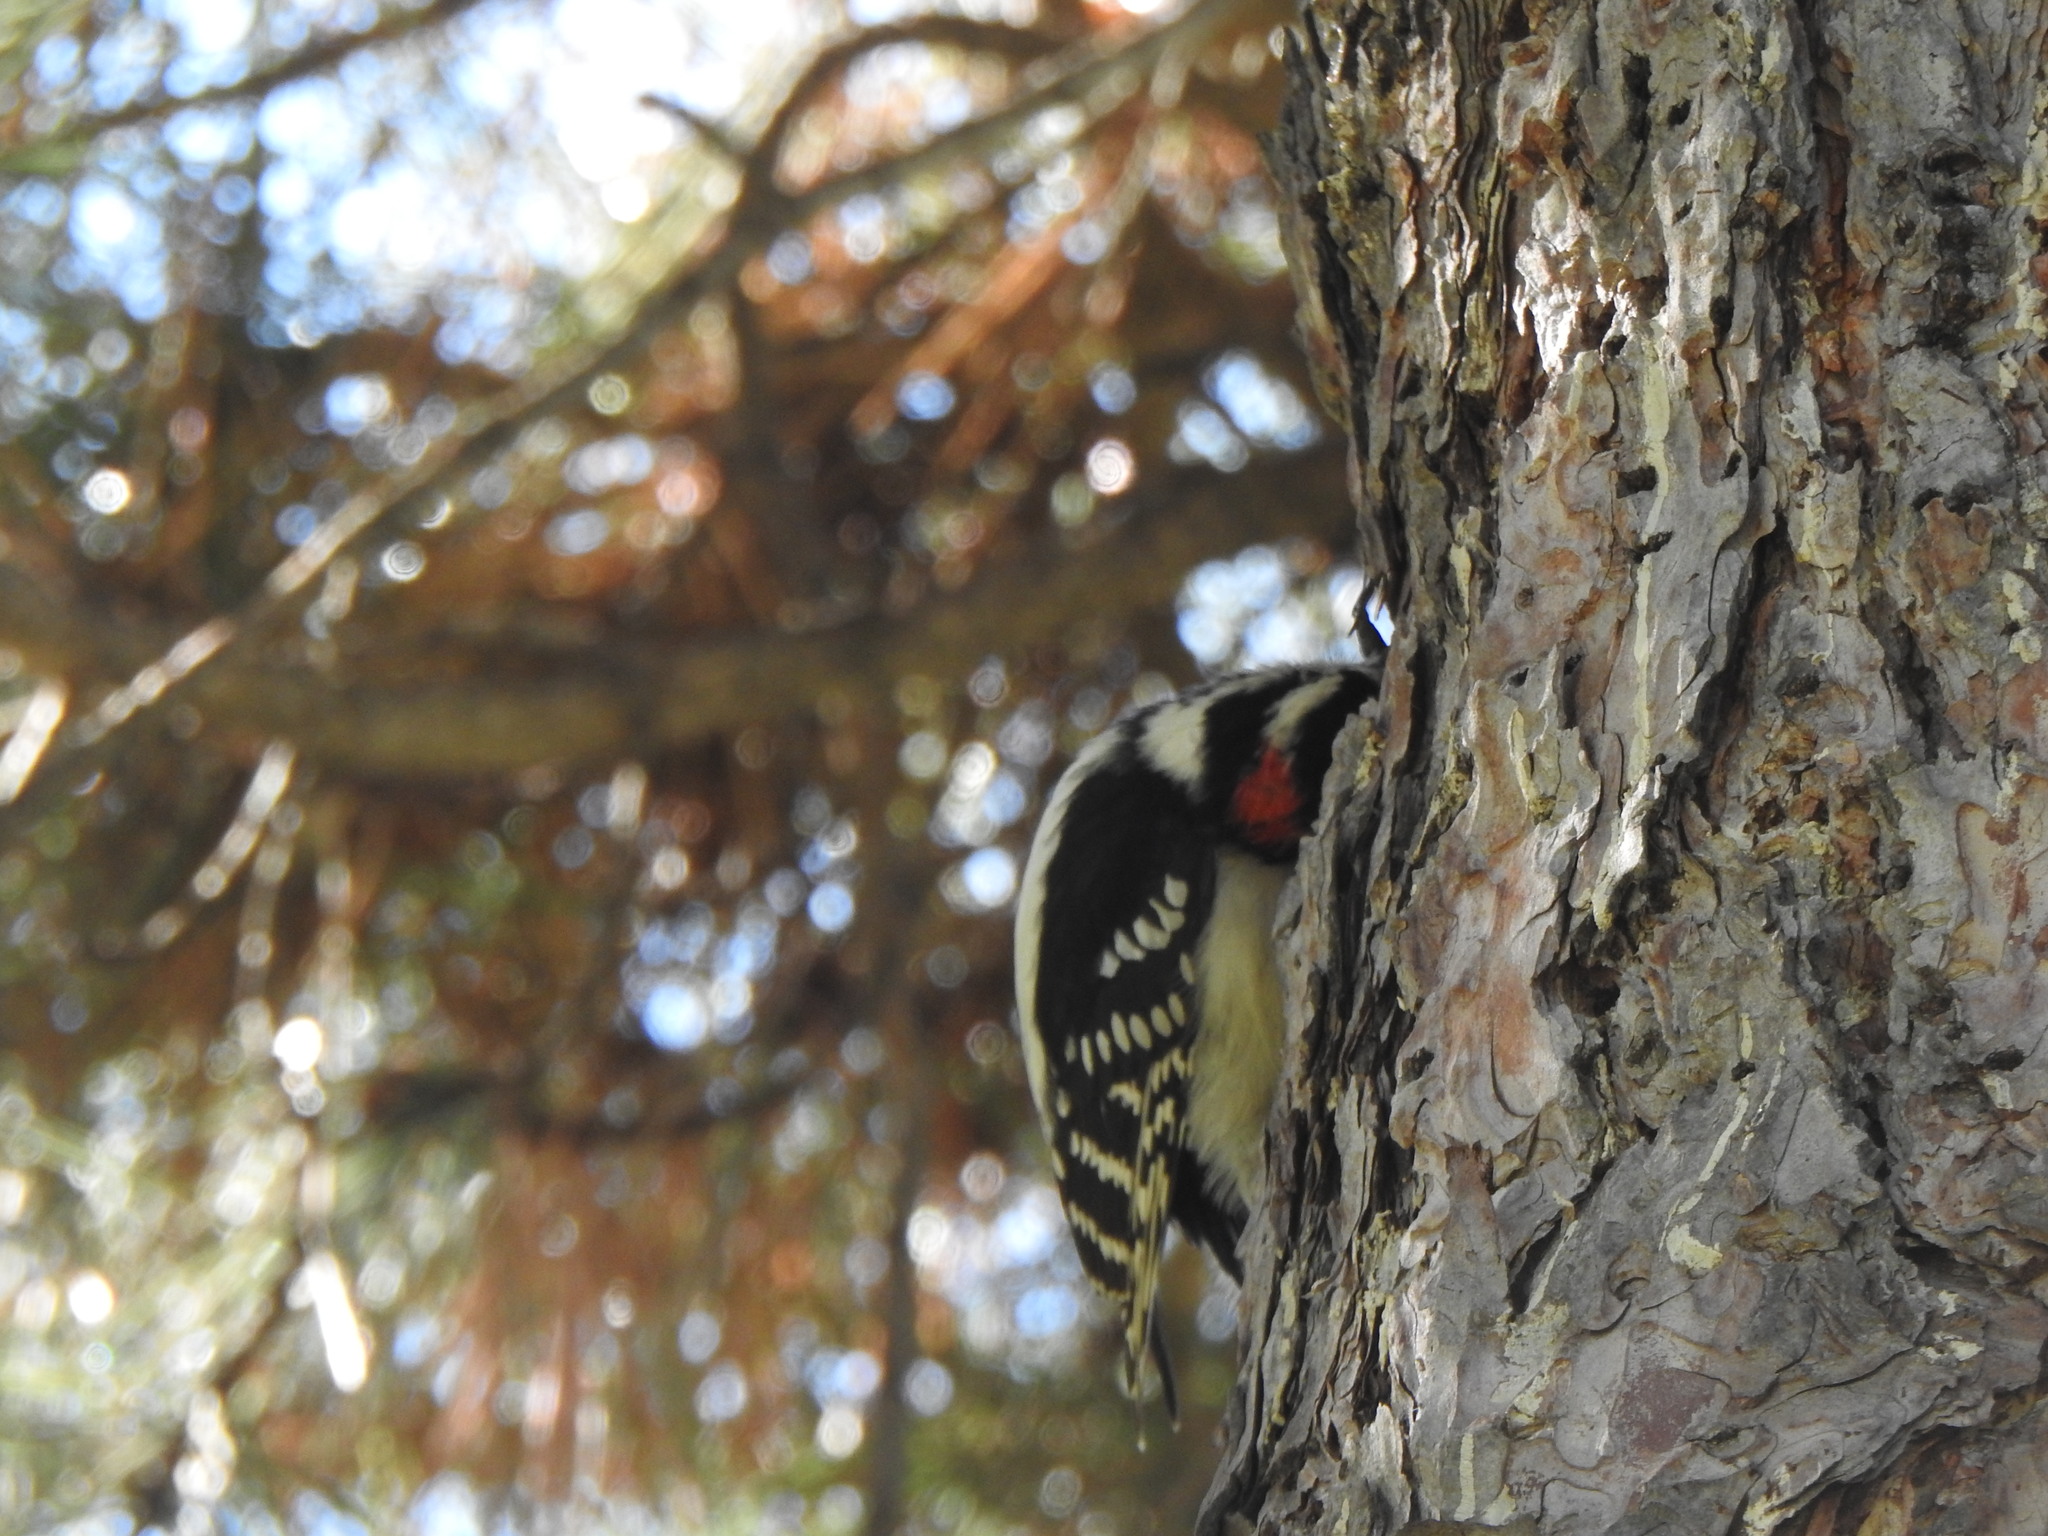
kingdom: Animalia
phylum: Chordata
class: Aves
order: Piciformes
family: Picidae
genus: Dryobates
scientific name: Dryobates pubescens
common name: Downy woodpecker
